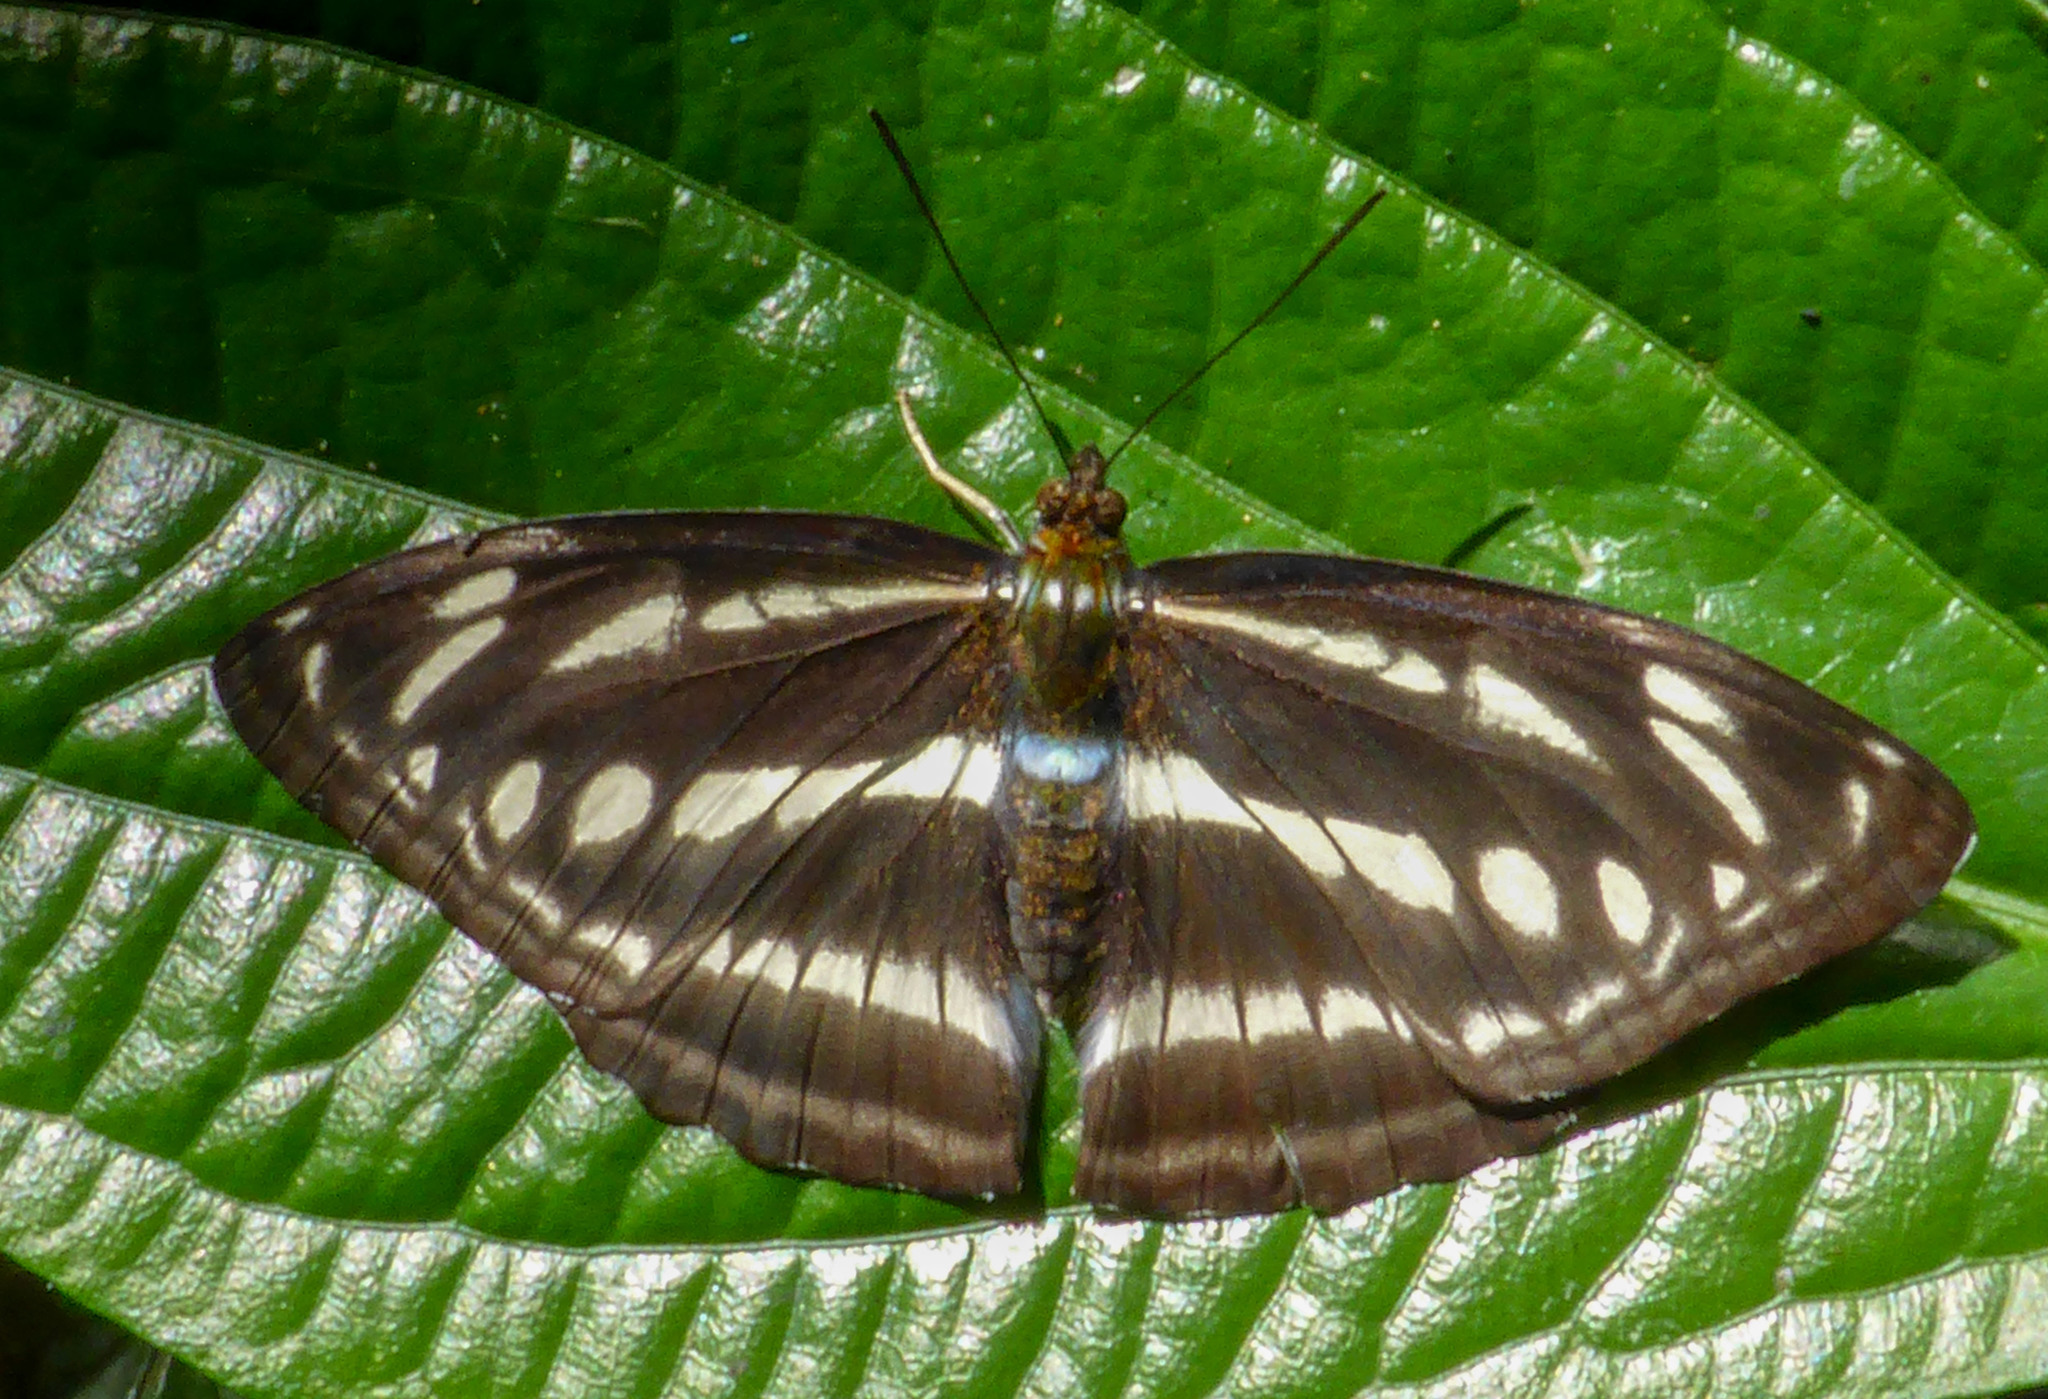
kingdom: Animalia
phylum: Arthropoda
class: Insecta
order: Lepidoptera
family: Nymphalidae
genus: Parathyma
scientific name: Parathyma opalina
